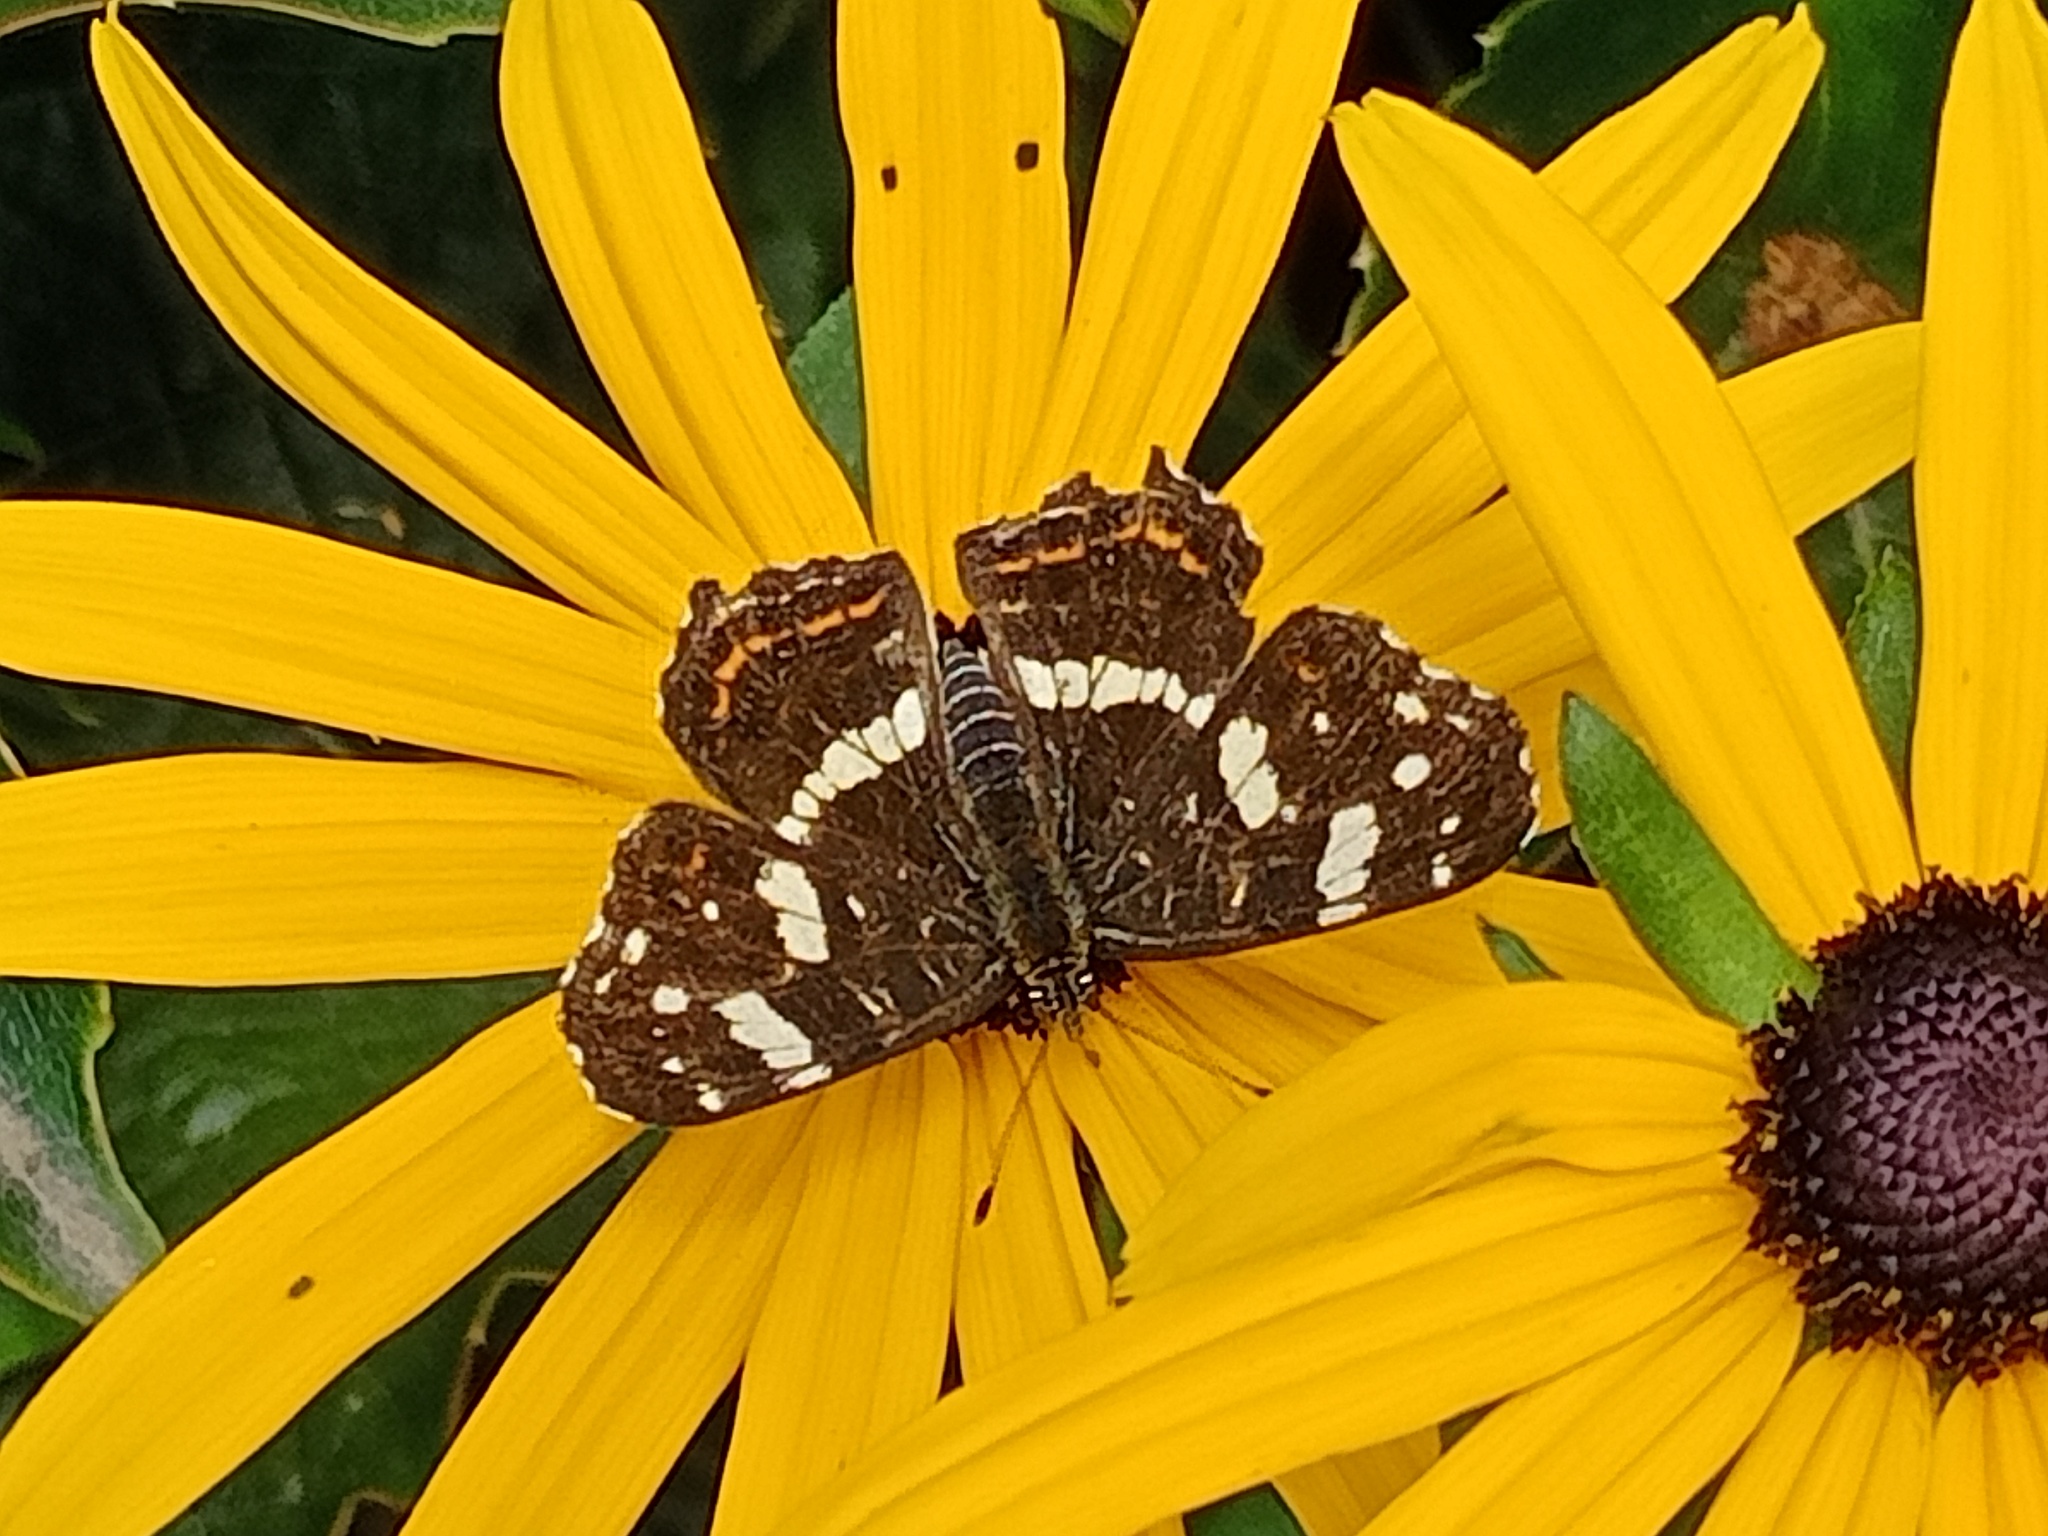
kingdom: Animalia
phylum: Arthropoda
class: Insecta
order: Lepidoptera
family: Nymphalidae
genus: Araschnia
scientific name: Araschnia levana
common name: Map butterfly
